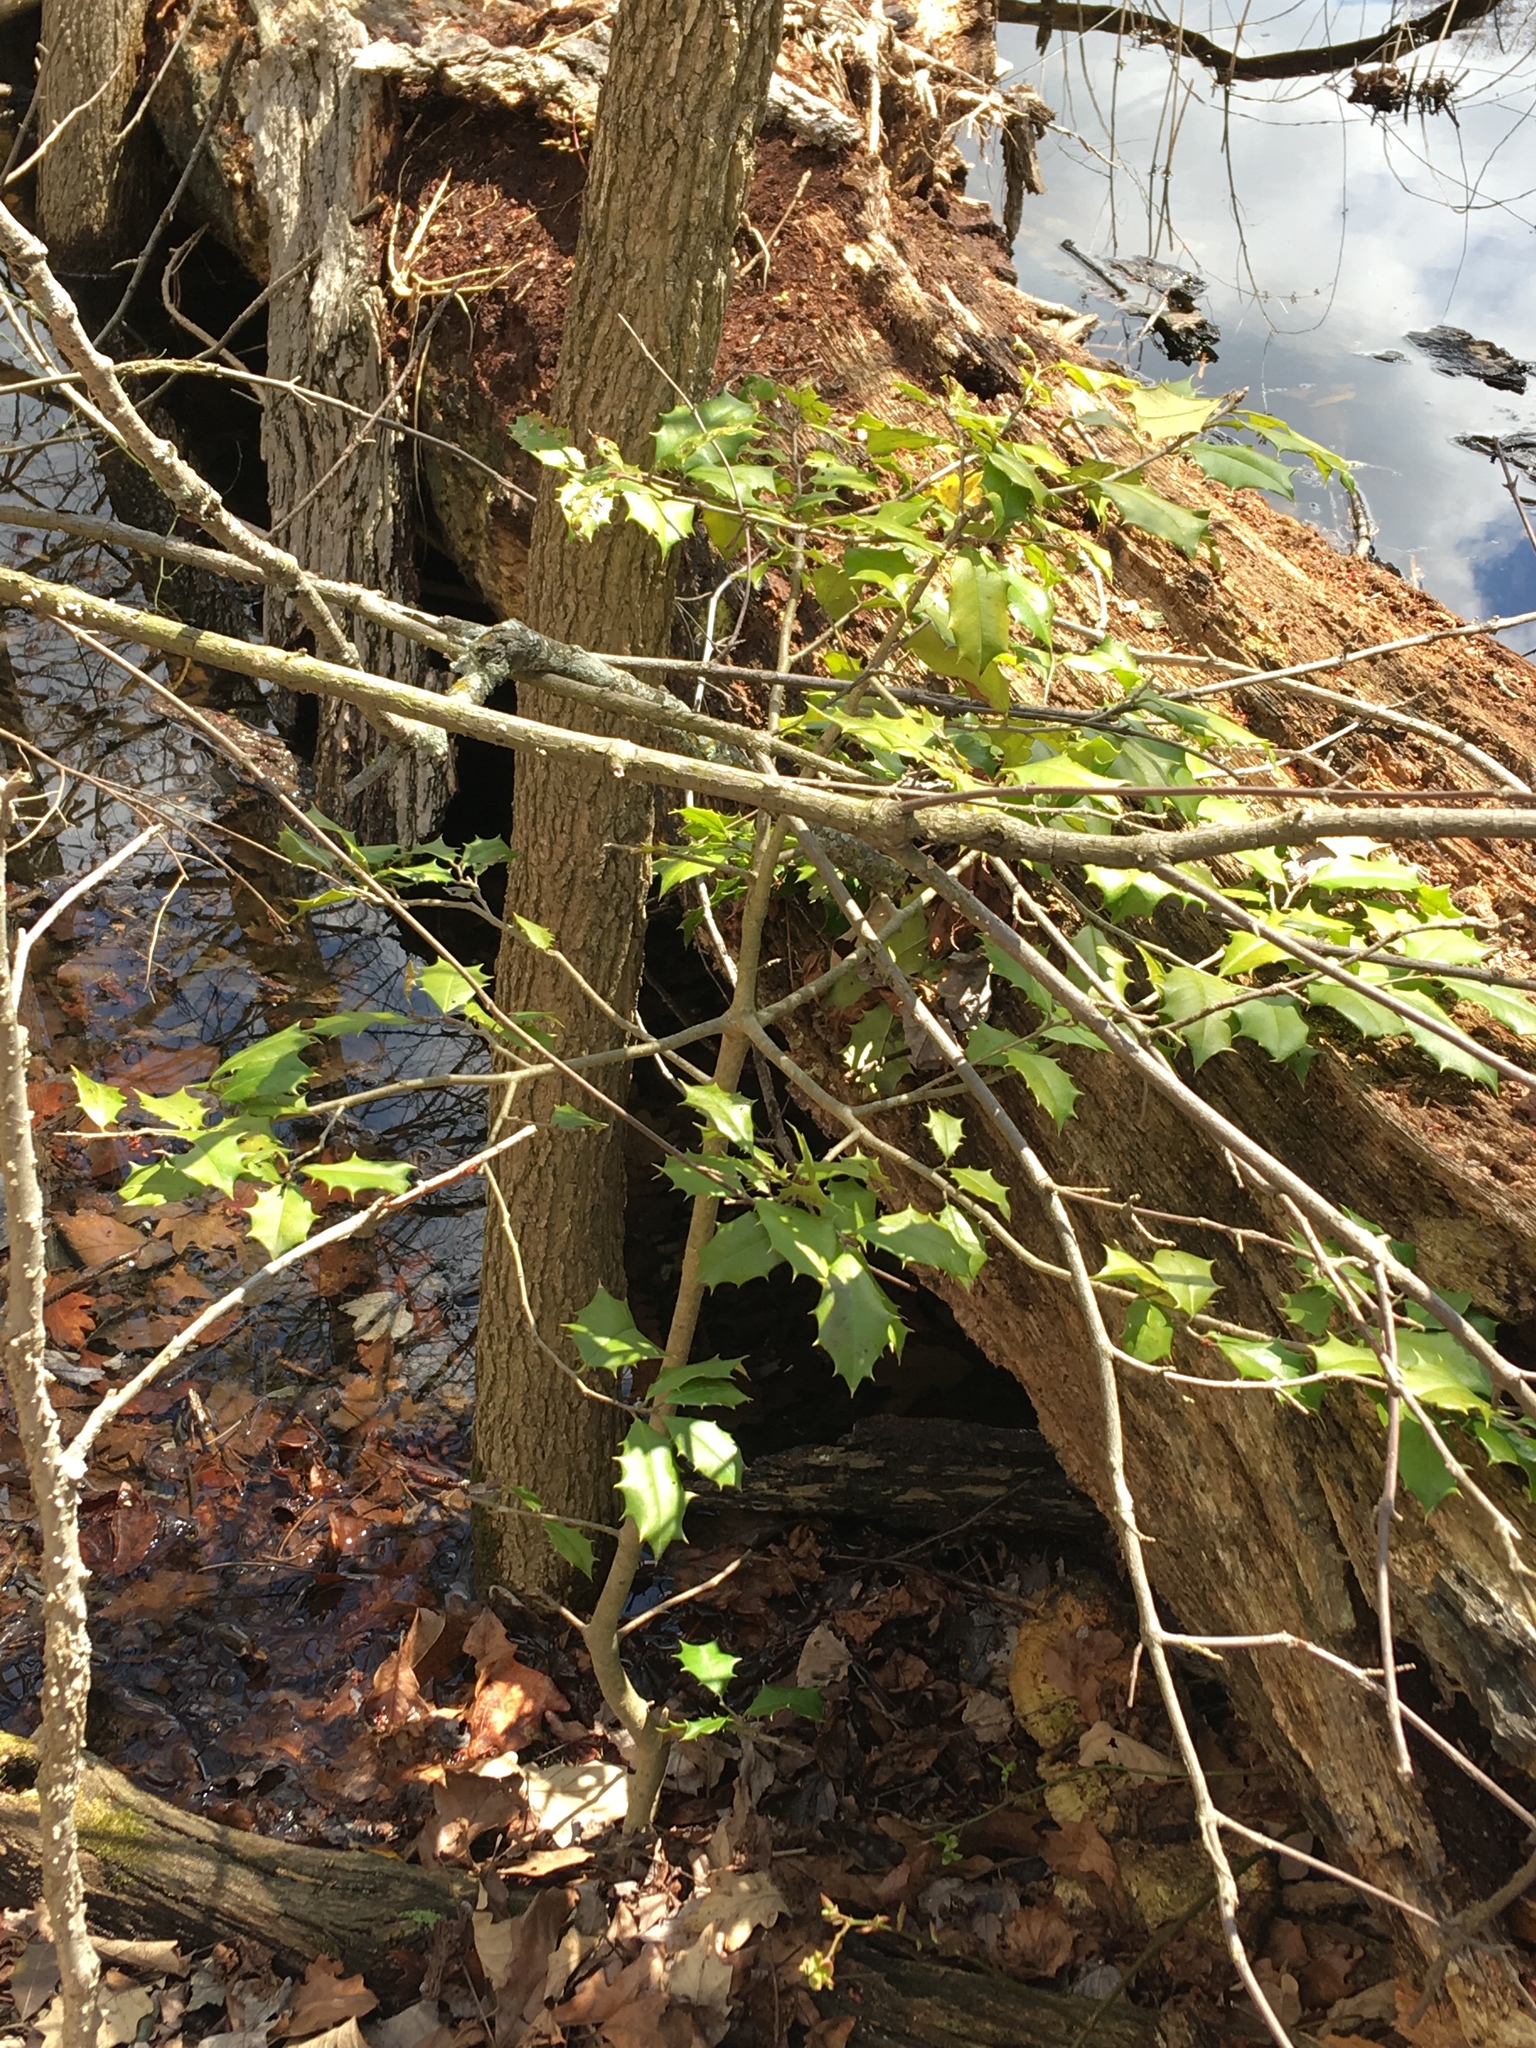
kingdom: Plantae
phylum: Tracheophyta
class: Magnoliopsida
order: Aquifoliales
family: Aquifoliaceae
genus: Ilex
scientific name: Ilex opaca
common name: American holly
